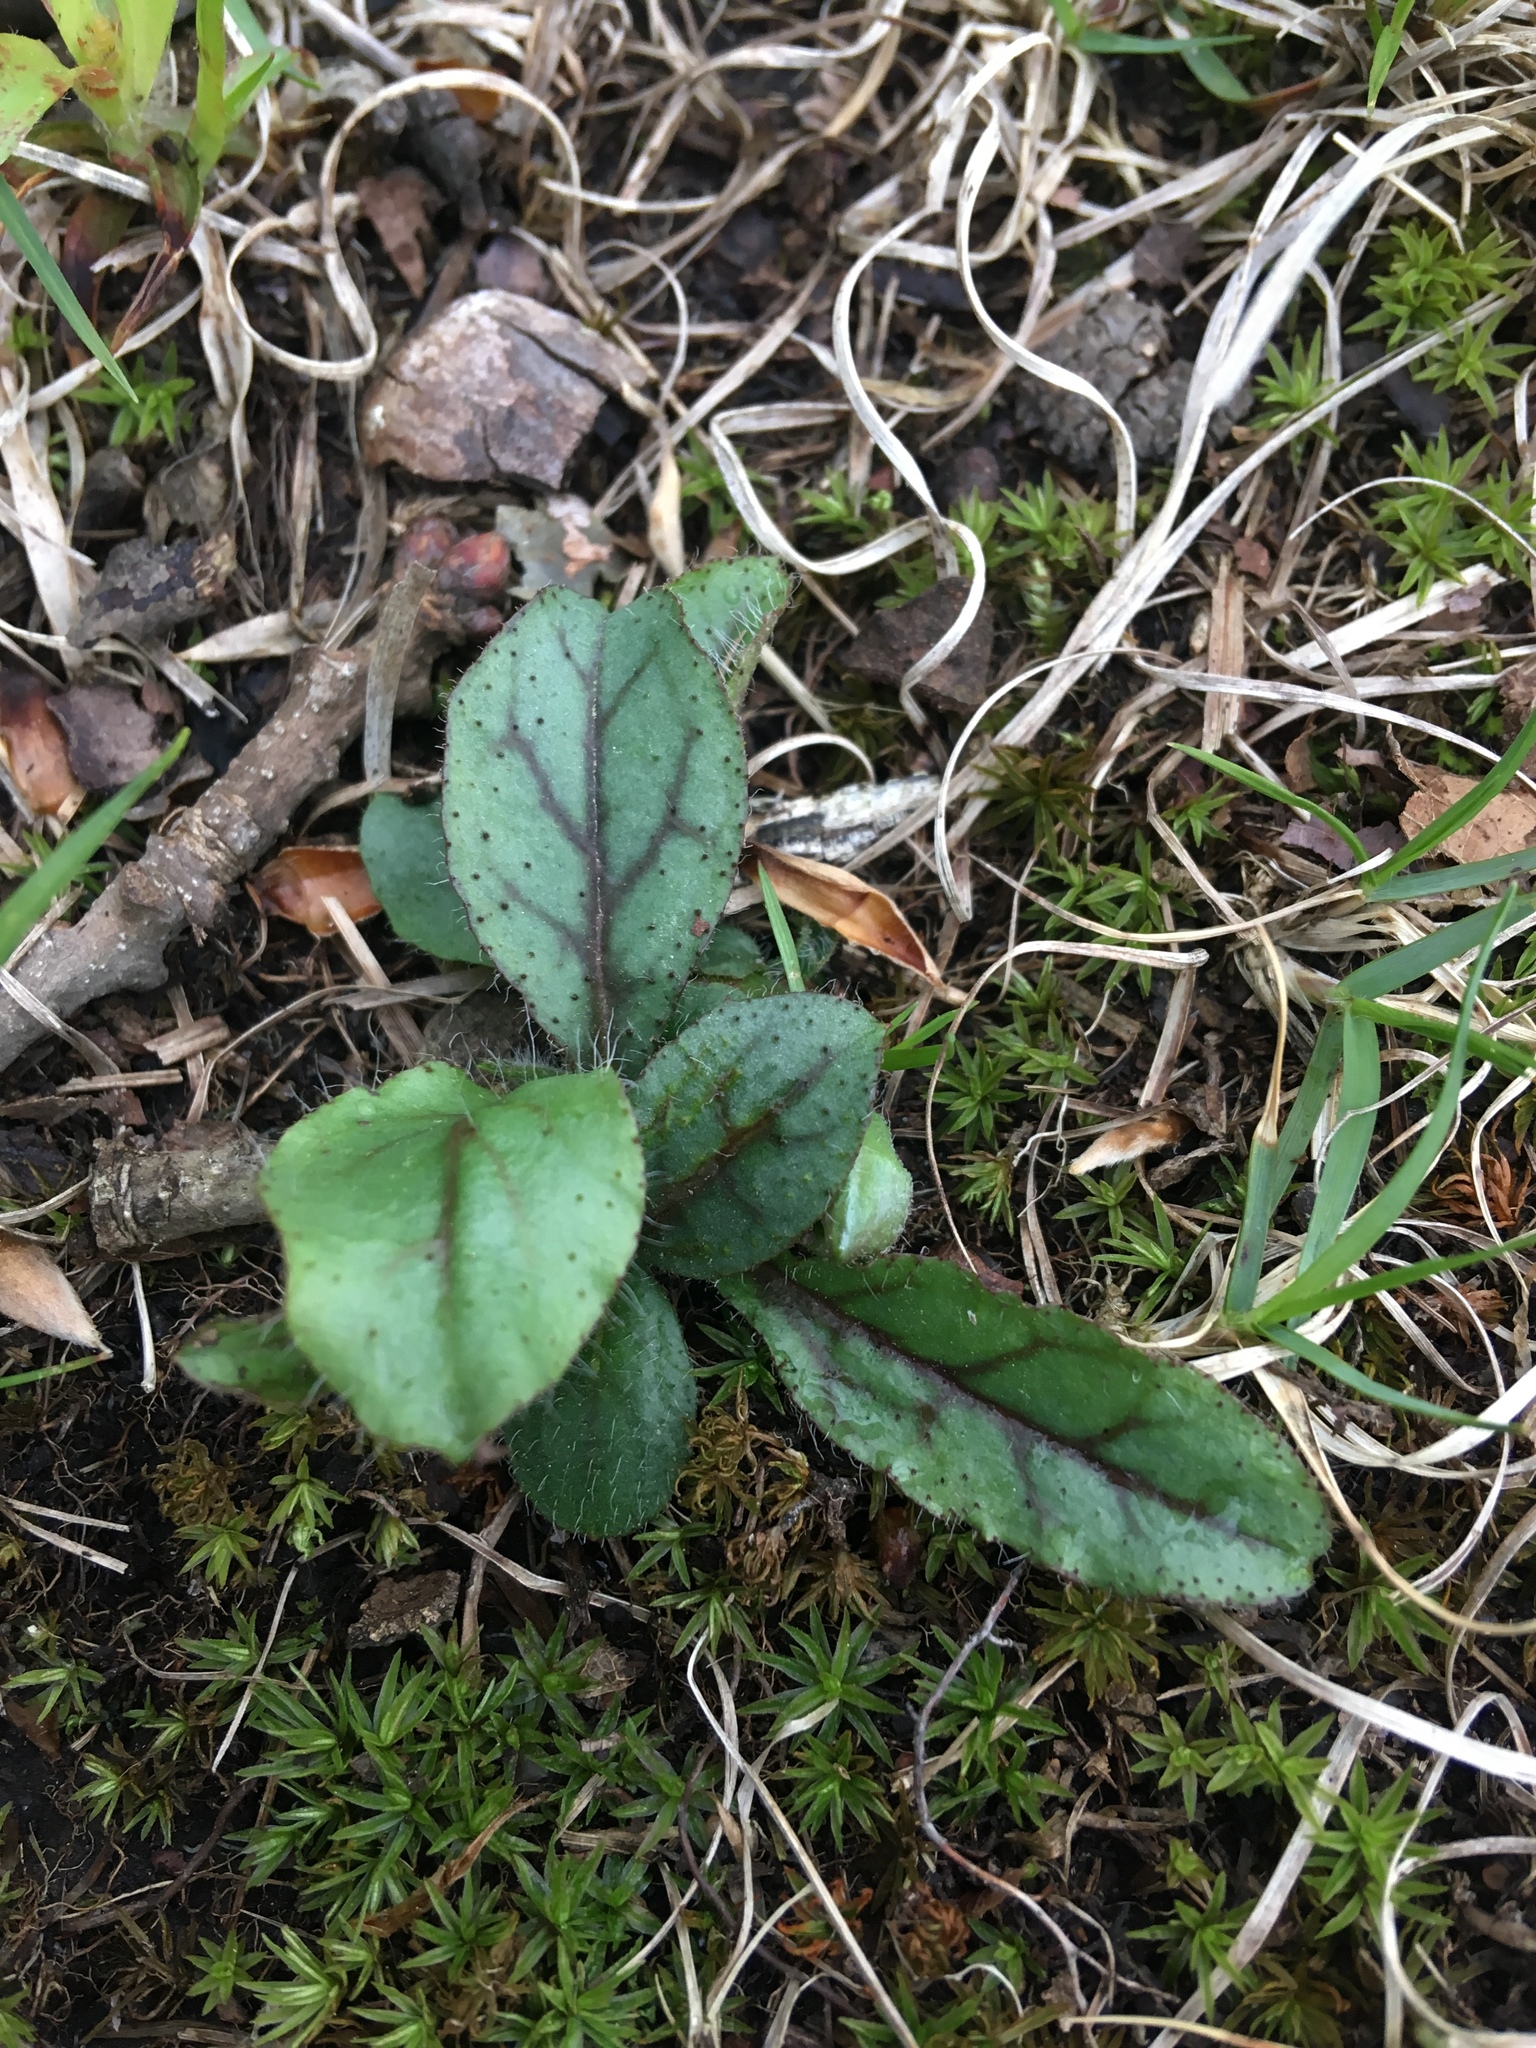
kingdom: Plantae
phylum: Tracheophyta
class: Magnoliopsida
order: Asterales
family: Asteraceae
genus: Hieracium
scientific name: Hieracium venosum
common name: Rattlesnake hawkweed
